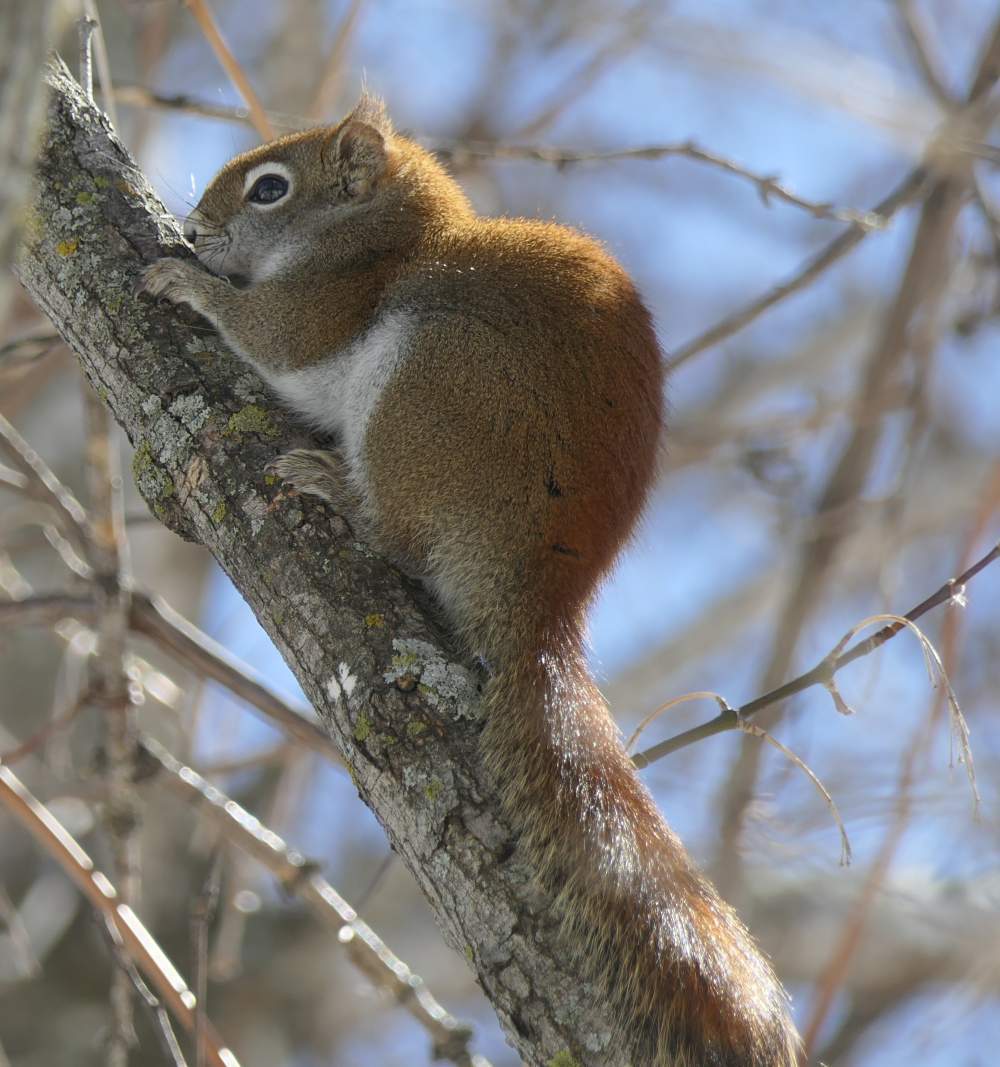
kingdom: Animalia
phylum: Chordata
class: Mammalia
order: Rodentia
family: Sciuridae
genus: Tamiasciurus
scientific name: Tamiasciurus hudsonicus
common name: Red squirrel
